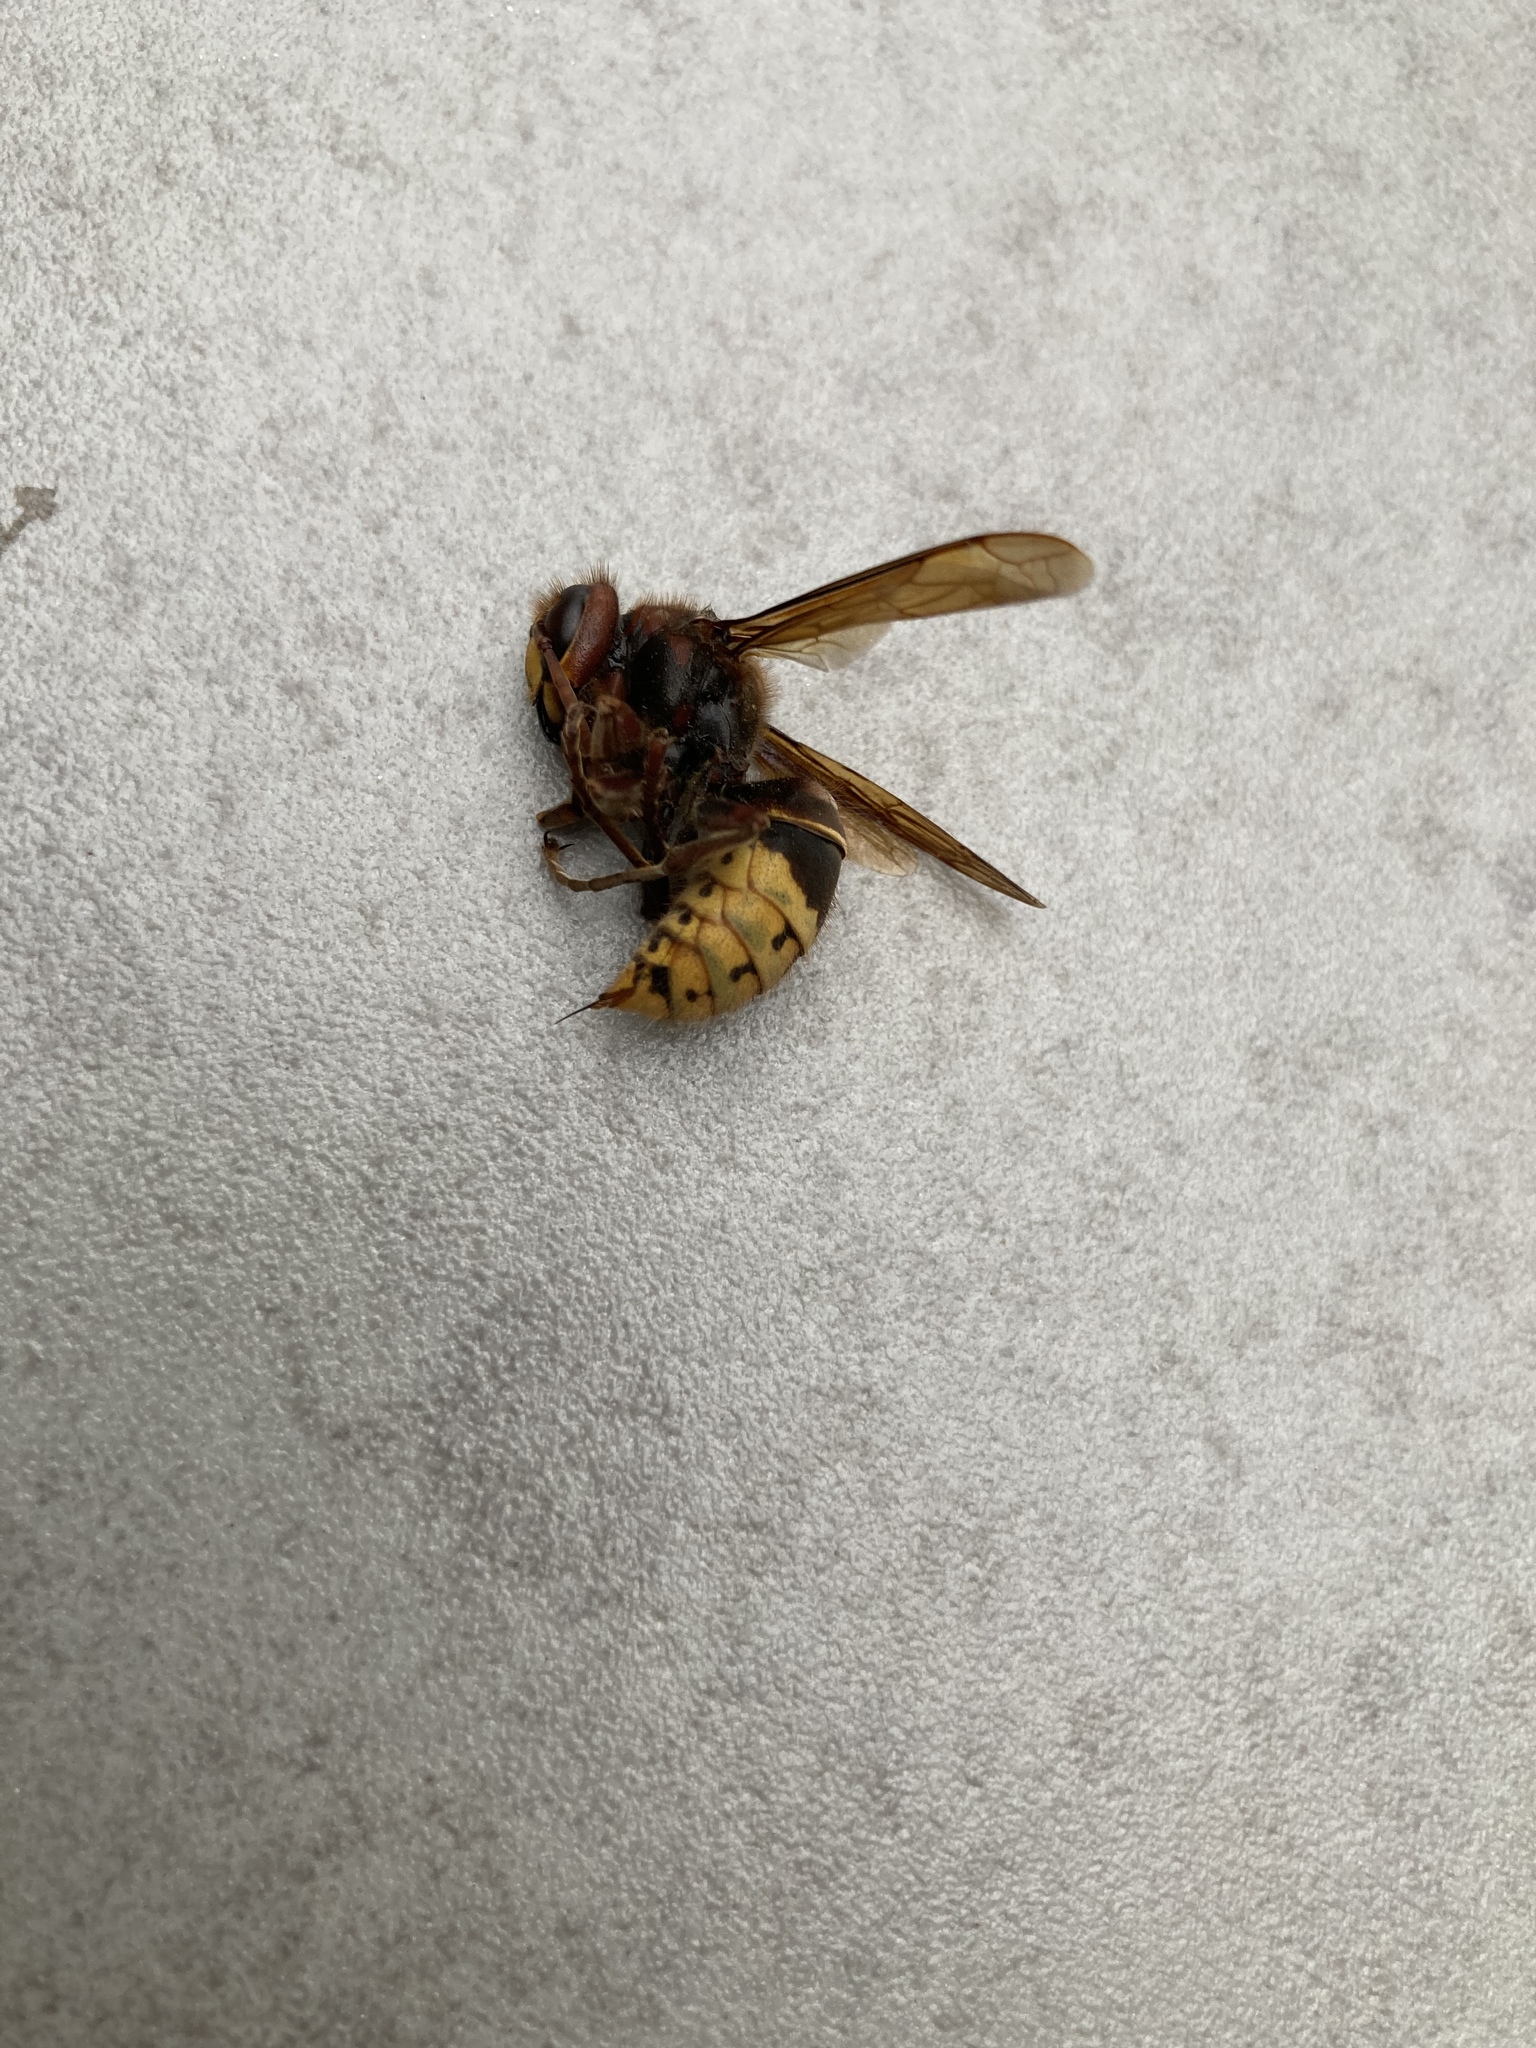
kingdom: Animalia
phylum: Arthropoda
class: Insecta
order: Hymenoptera
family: Vespidae
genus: Vespa
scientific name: Vespa crabro
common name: Hornet
